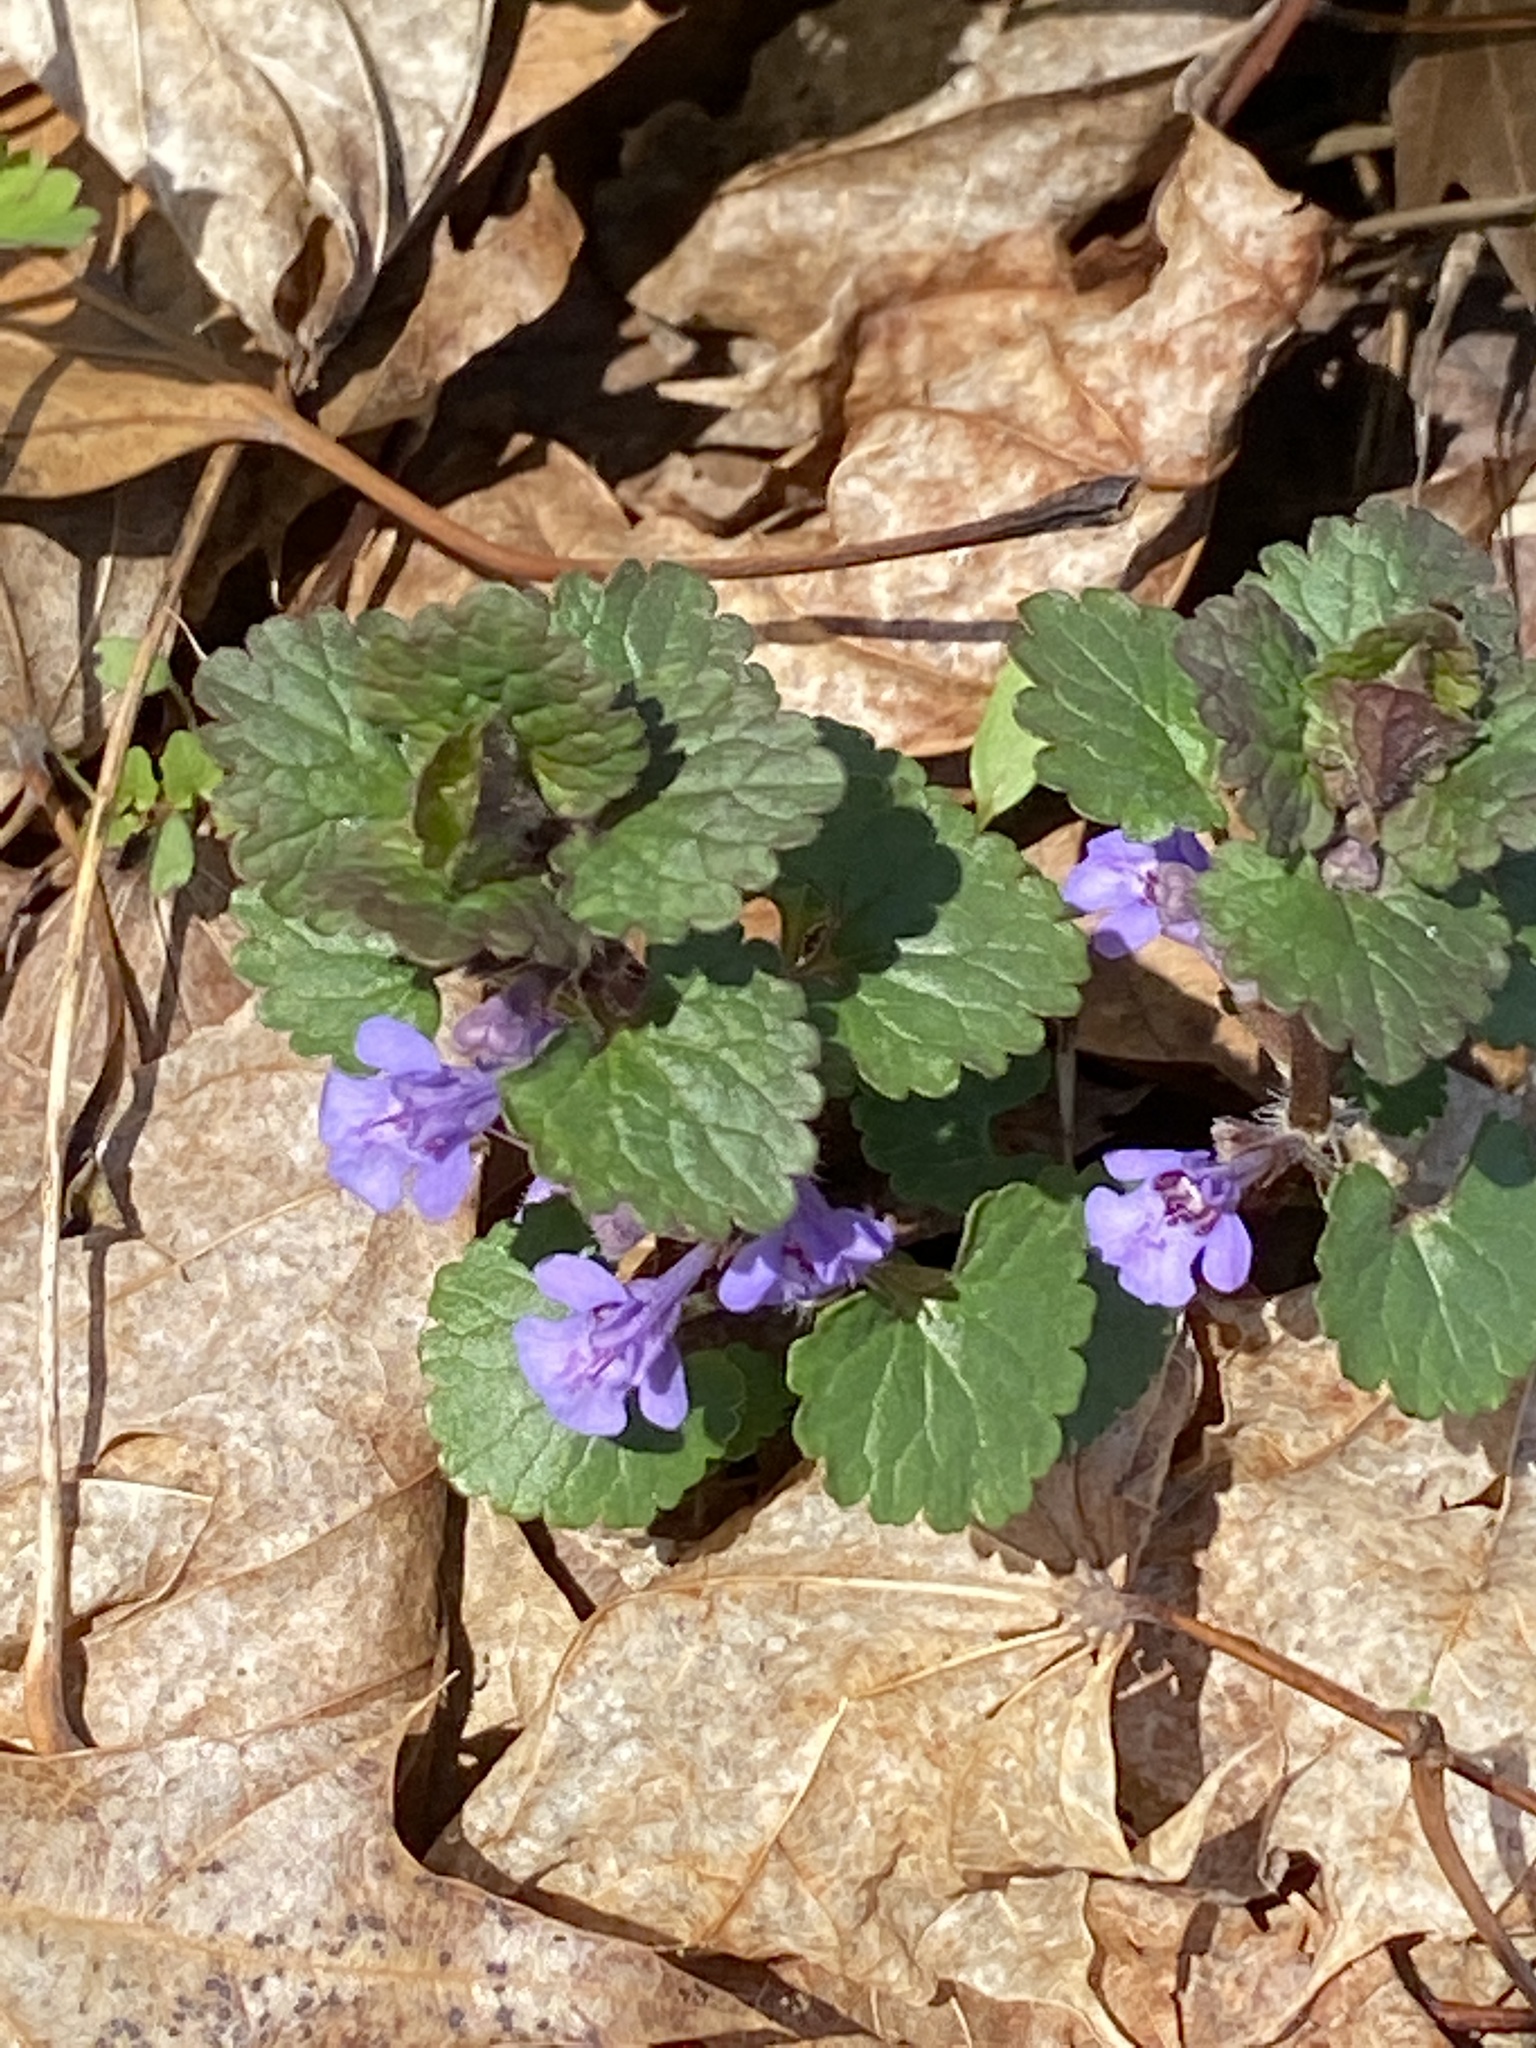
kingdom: Plantae
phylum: Tracheophyta
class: Magnoliopsida
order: Lamiales
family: Lamiaceae
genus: Glechoma
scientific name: Glechoma hederacea
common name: Ground ivy
